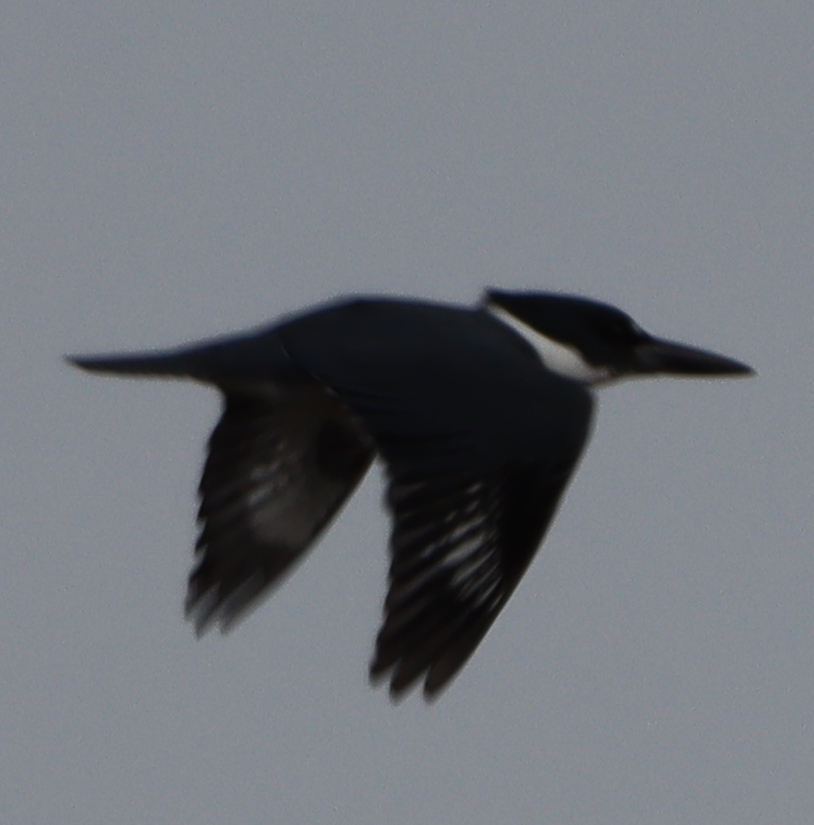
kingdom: Animalia
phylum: Chordata
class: Aves
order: Coraciiformes
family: Alcedinidae
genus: Megaceryle
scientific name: Megaceryle alcyon
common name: Belted kingfisher
